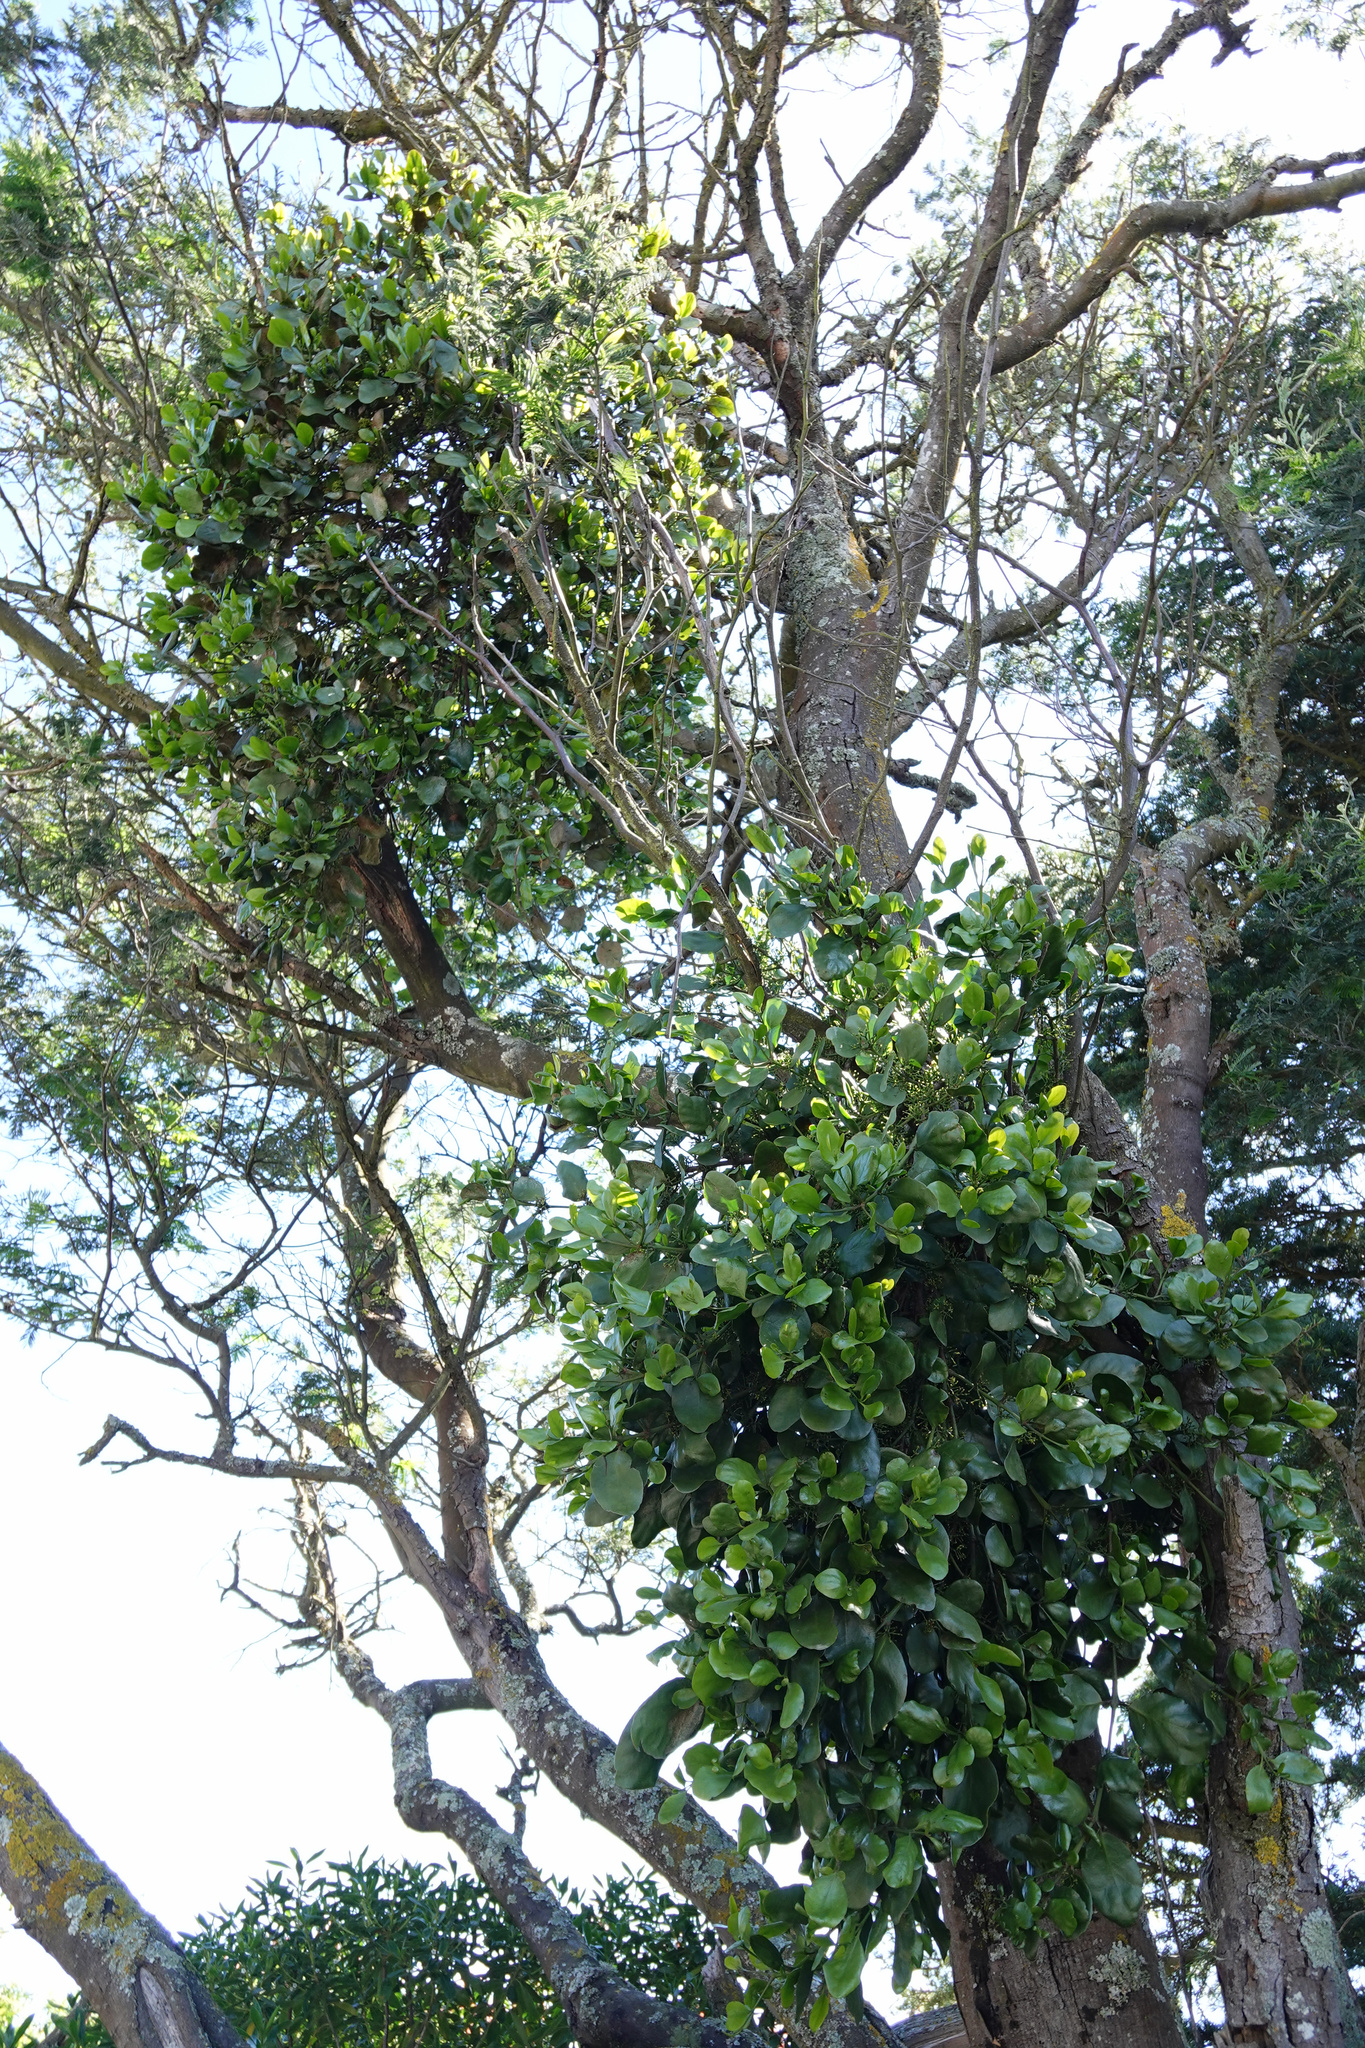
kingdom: Plantae
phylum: Tracheophyta
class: Magnoliopsida
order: Santalales
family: Loranthaceae
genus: Ileostylus
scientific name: Ileostylus micranthus
